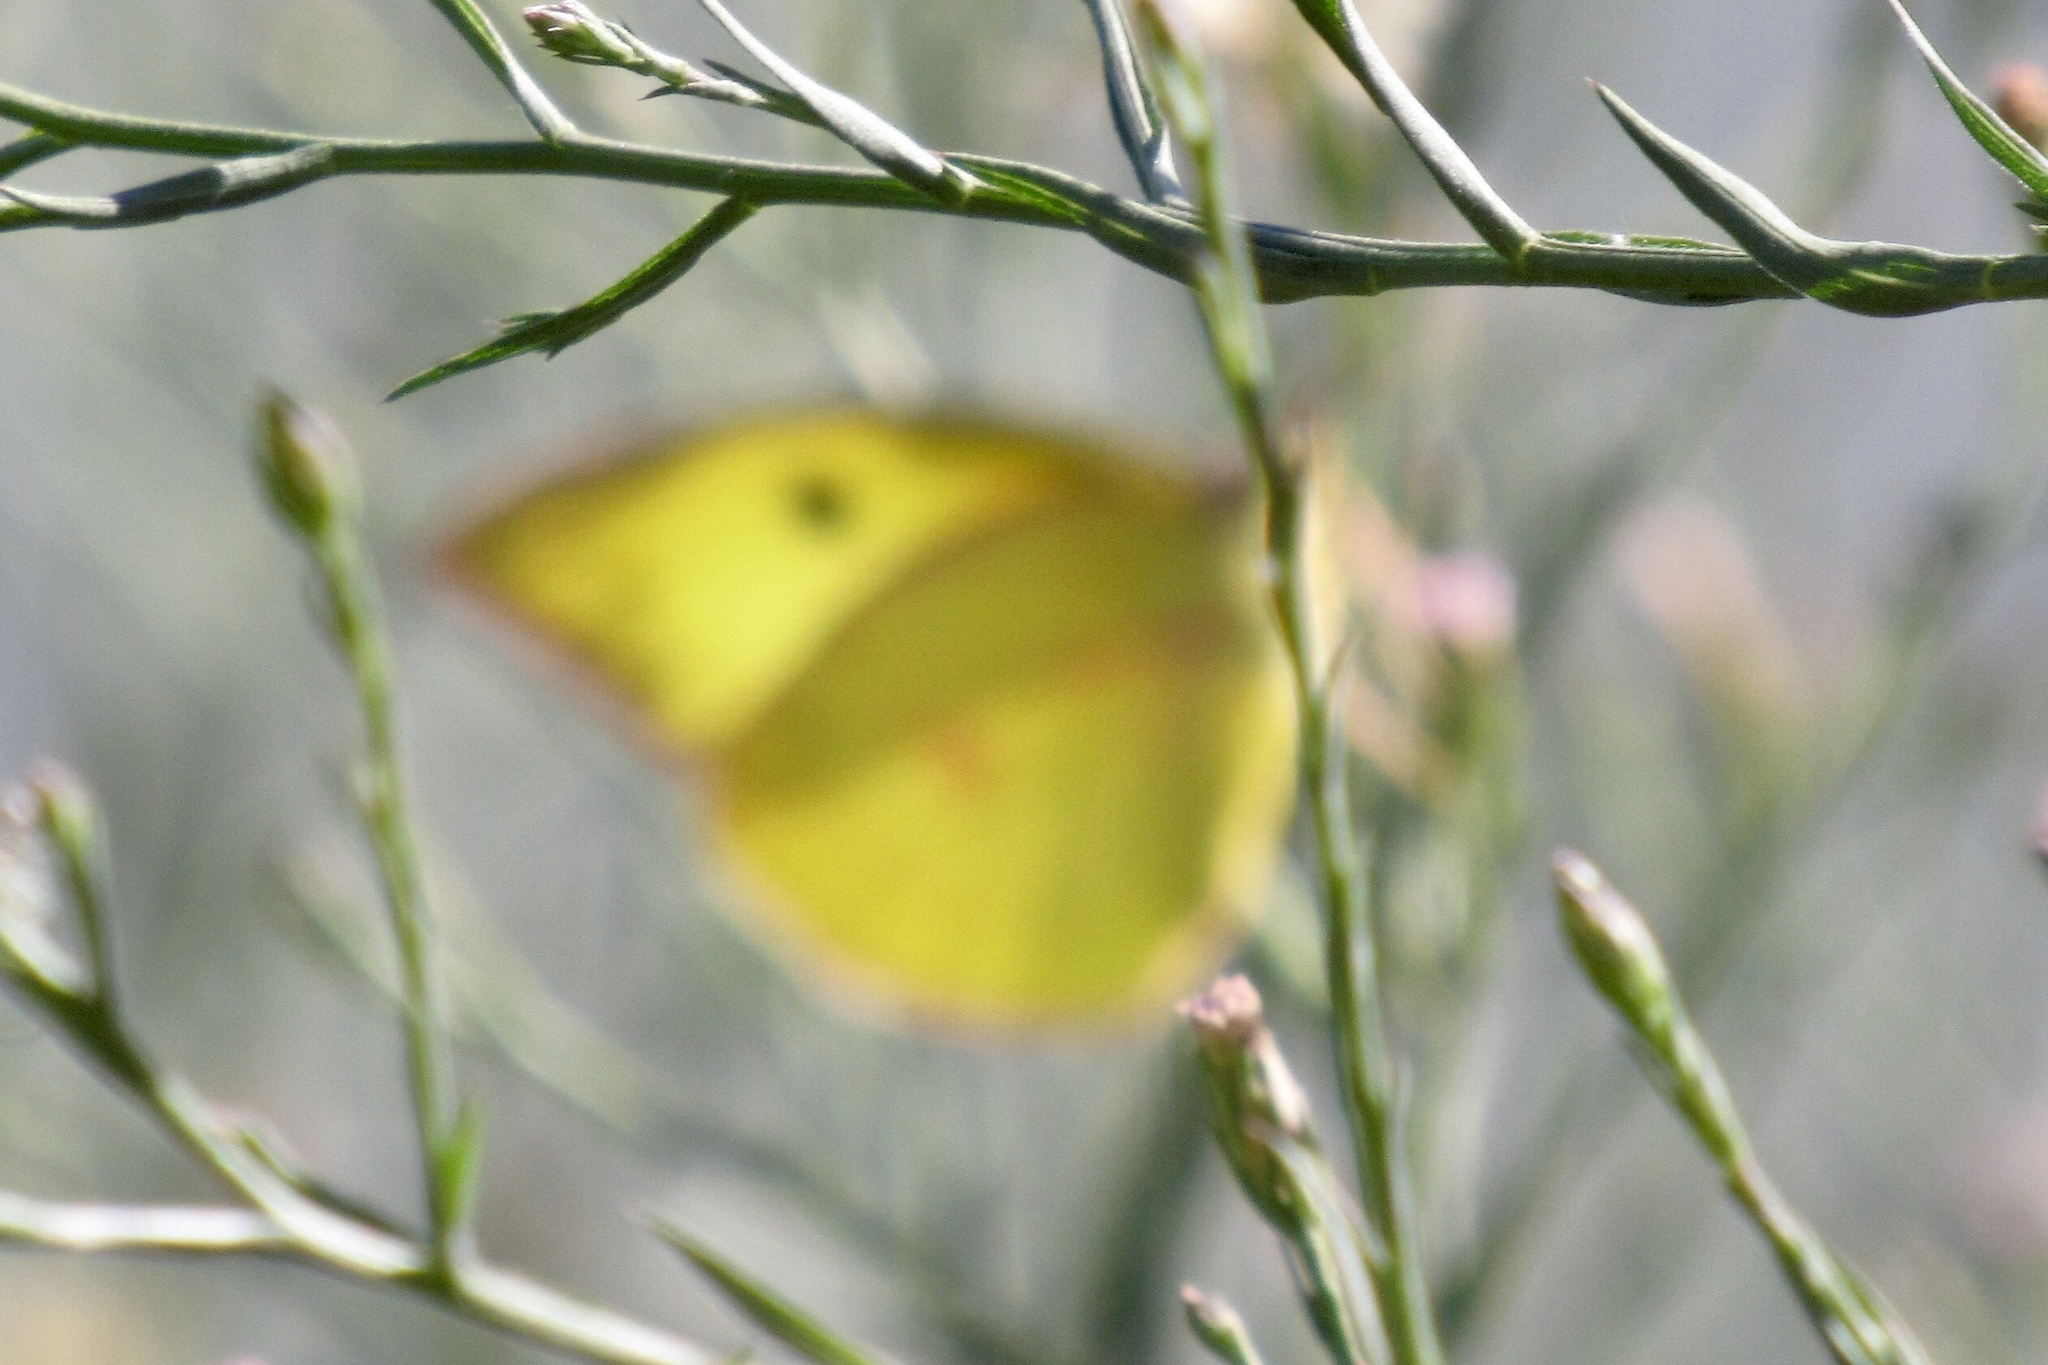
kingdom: Animalia
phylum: Arthropoda
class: Insecta
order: Lepidoptera
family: Pieridae
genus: Zerene
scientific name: Zerene cesonia
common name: Southern dogface
